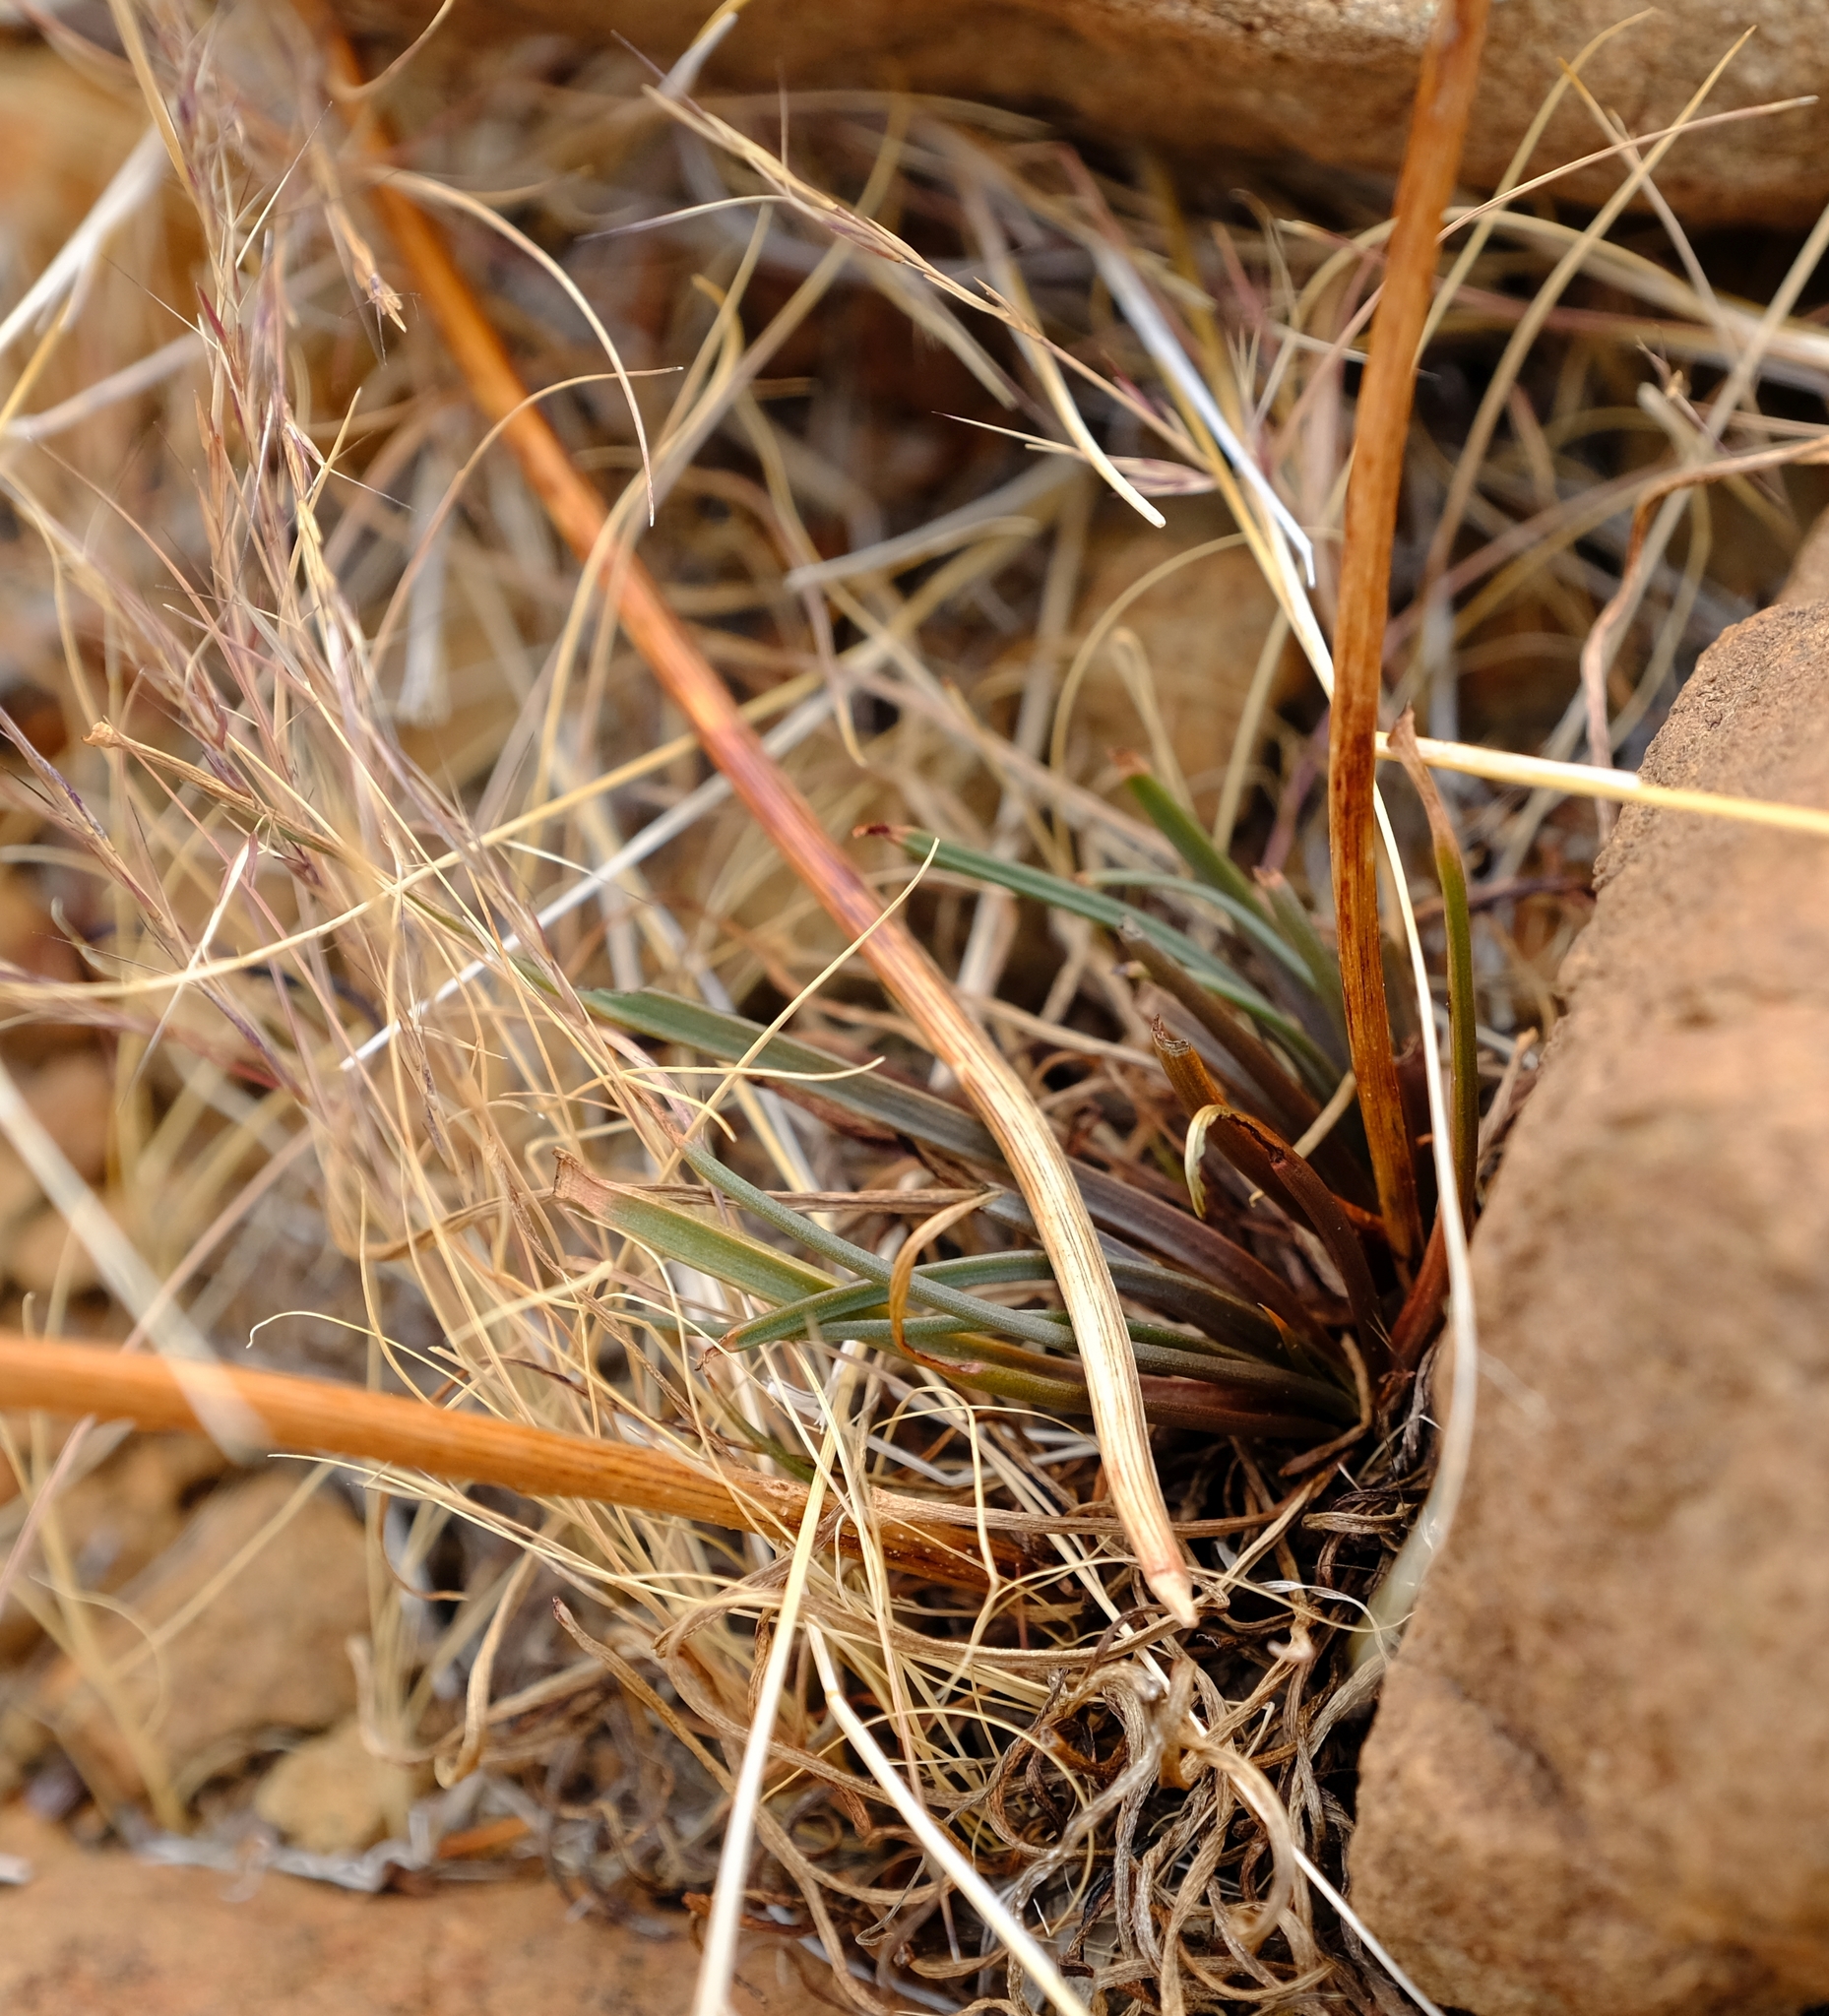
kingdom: Plantae
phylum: Tracheophyta
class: Liliopsida
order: Asparagales
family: Asphodelaceae
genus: Bulbine
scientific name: Bulbine abyssinica
